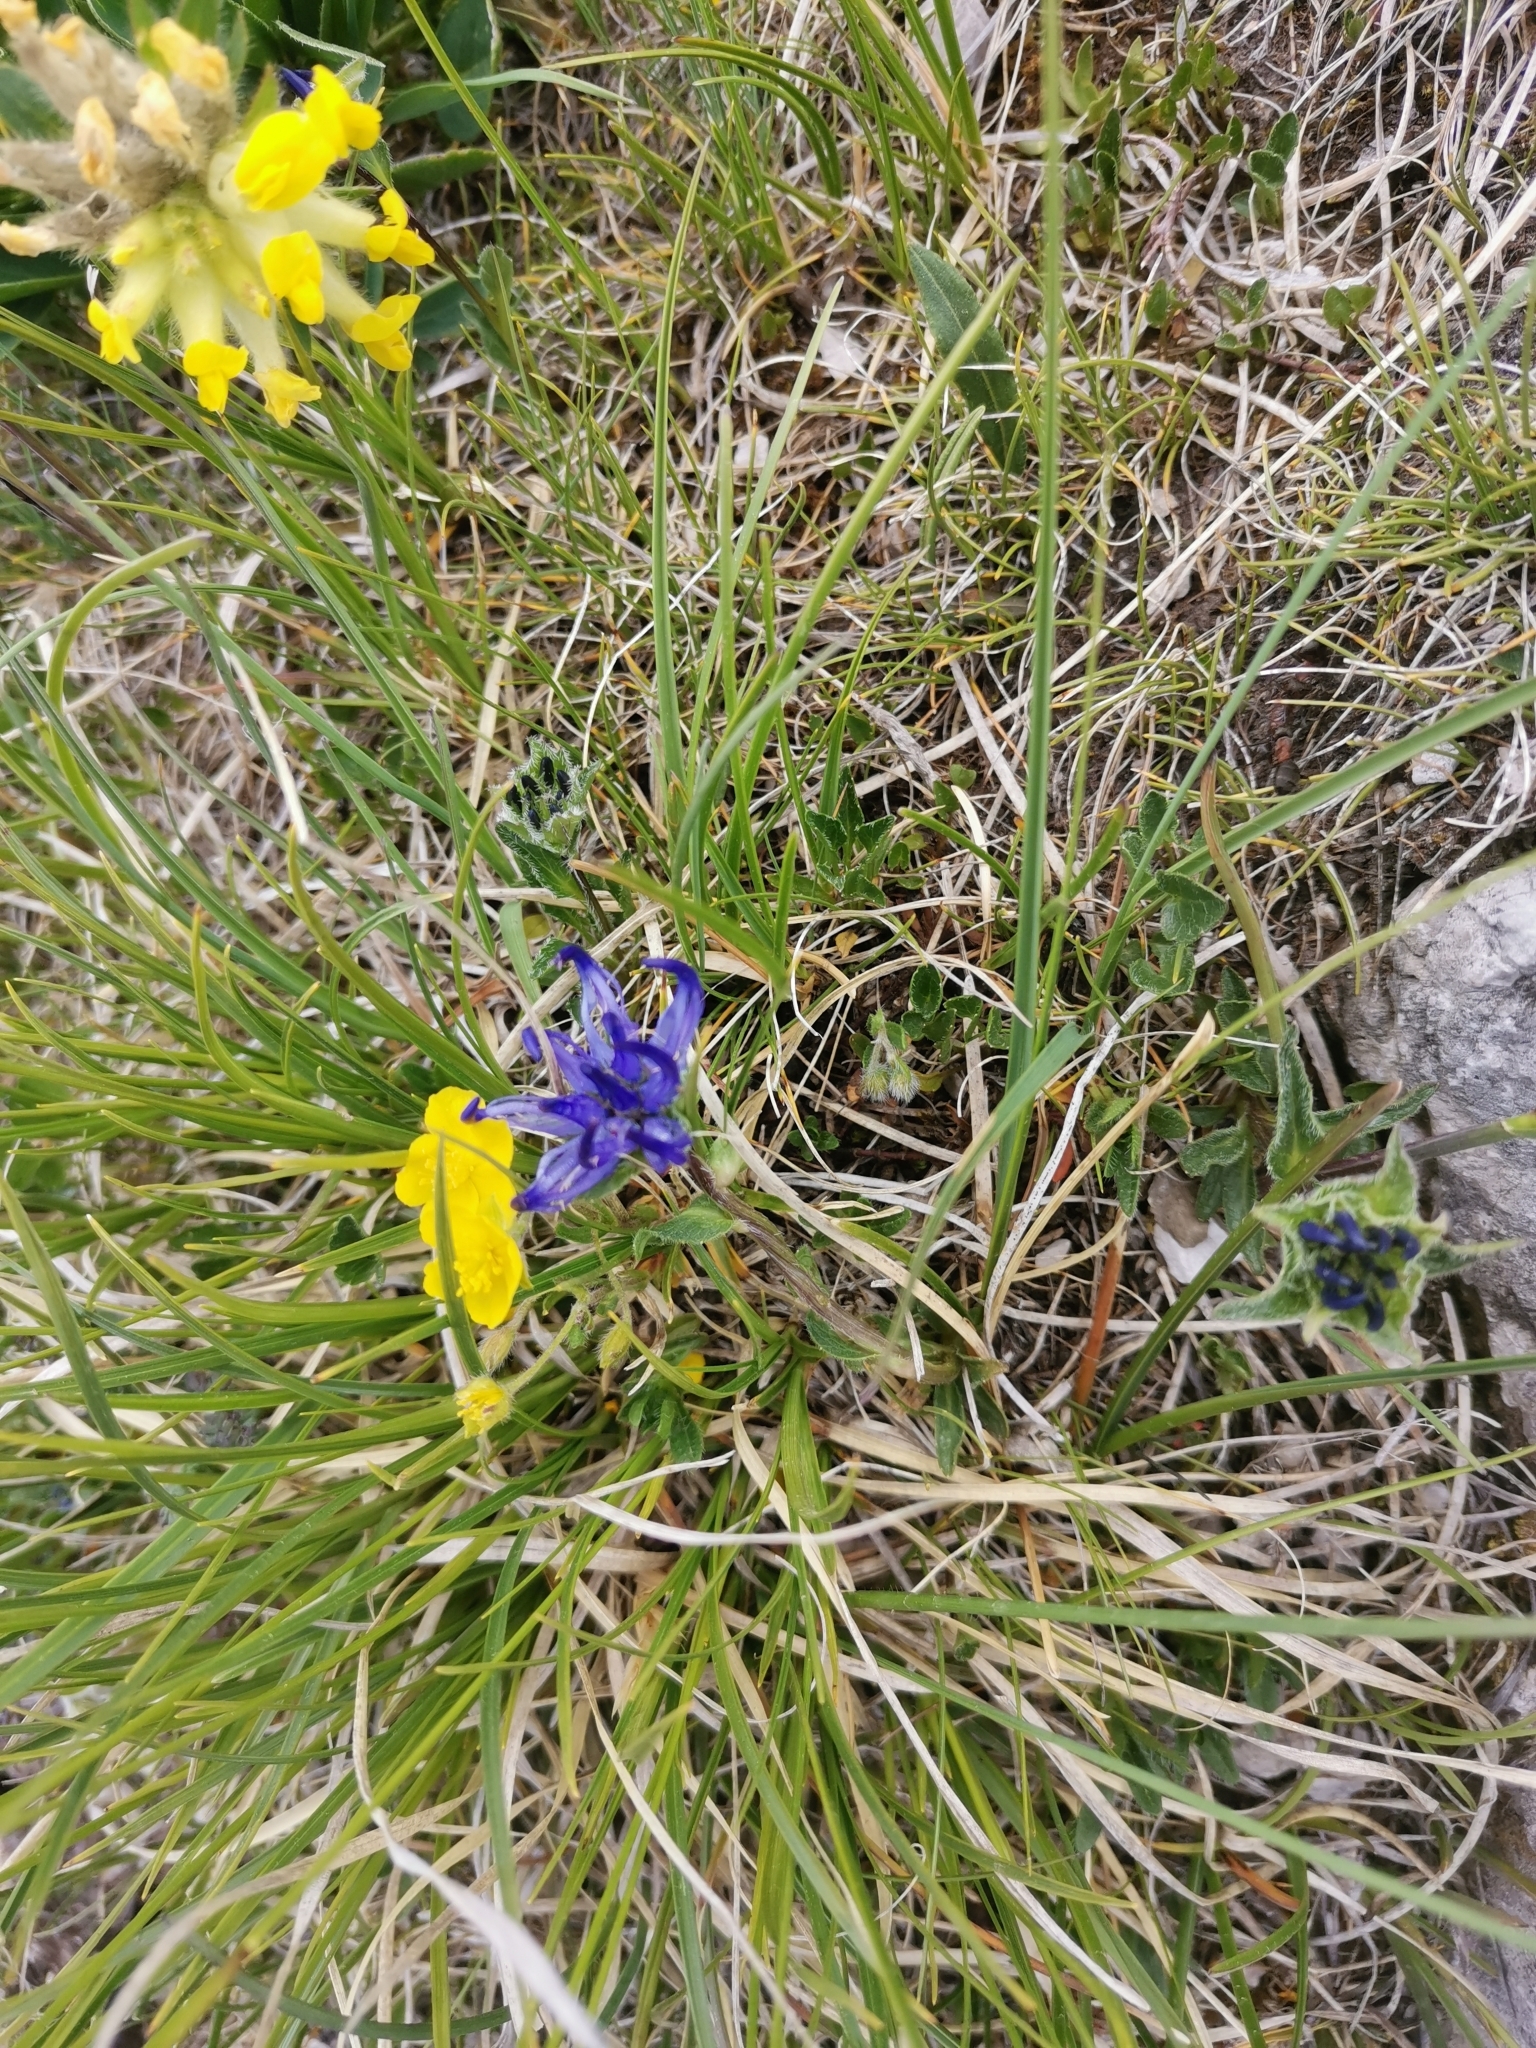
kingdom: Plantae
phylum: Tracheophyta
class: Magnoliopsida
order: Asterales
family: Campanulaceae
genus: Phyteuma
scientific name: Phyteuma sieberi
